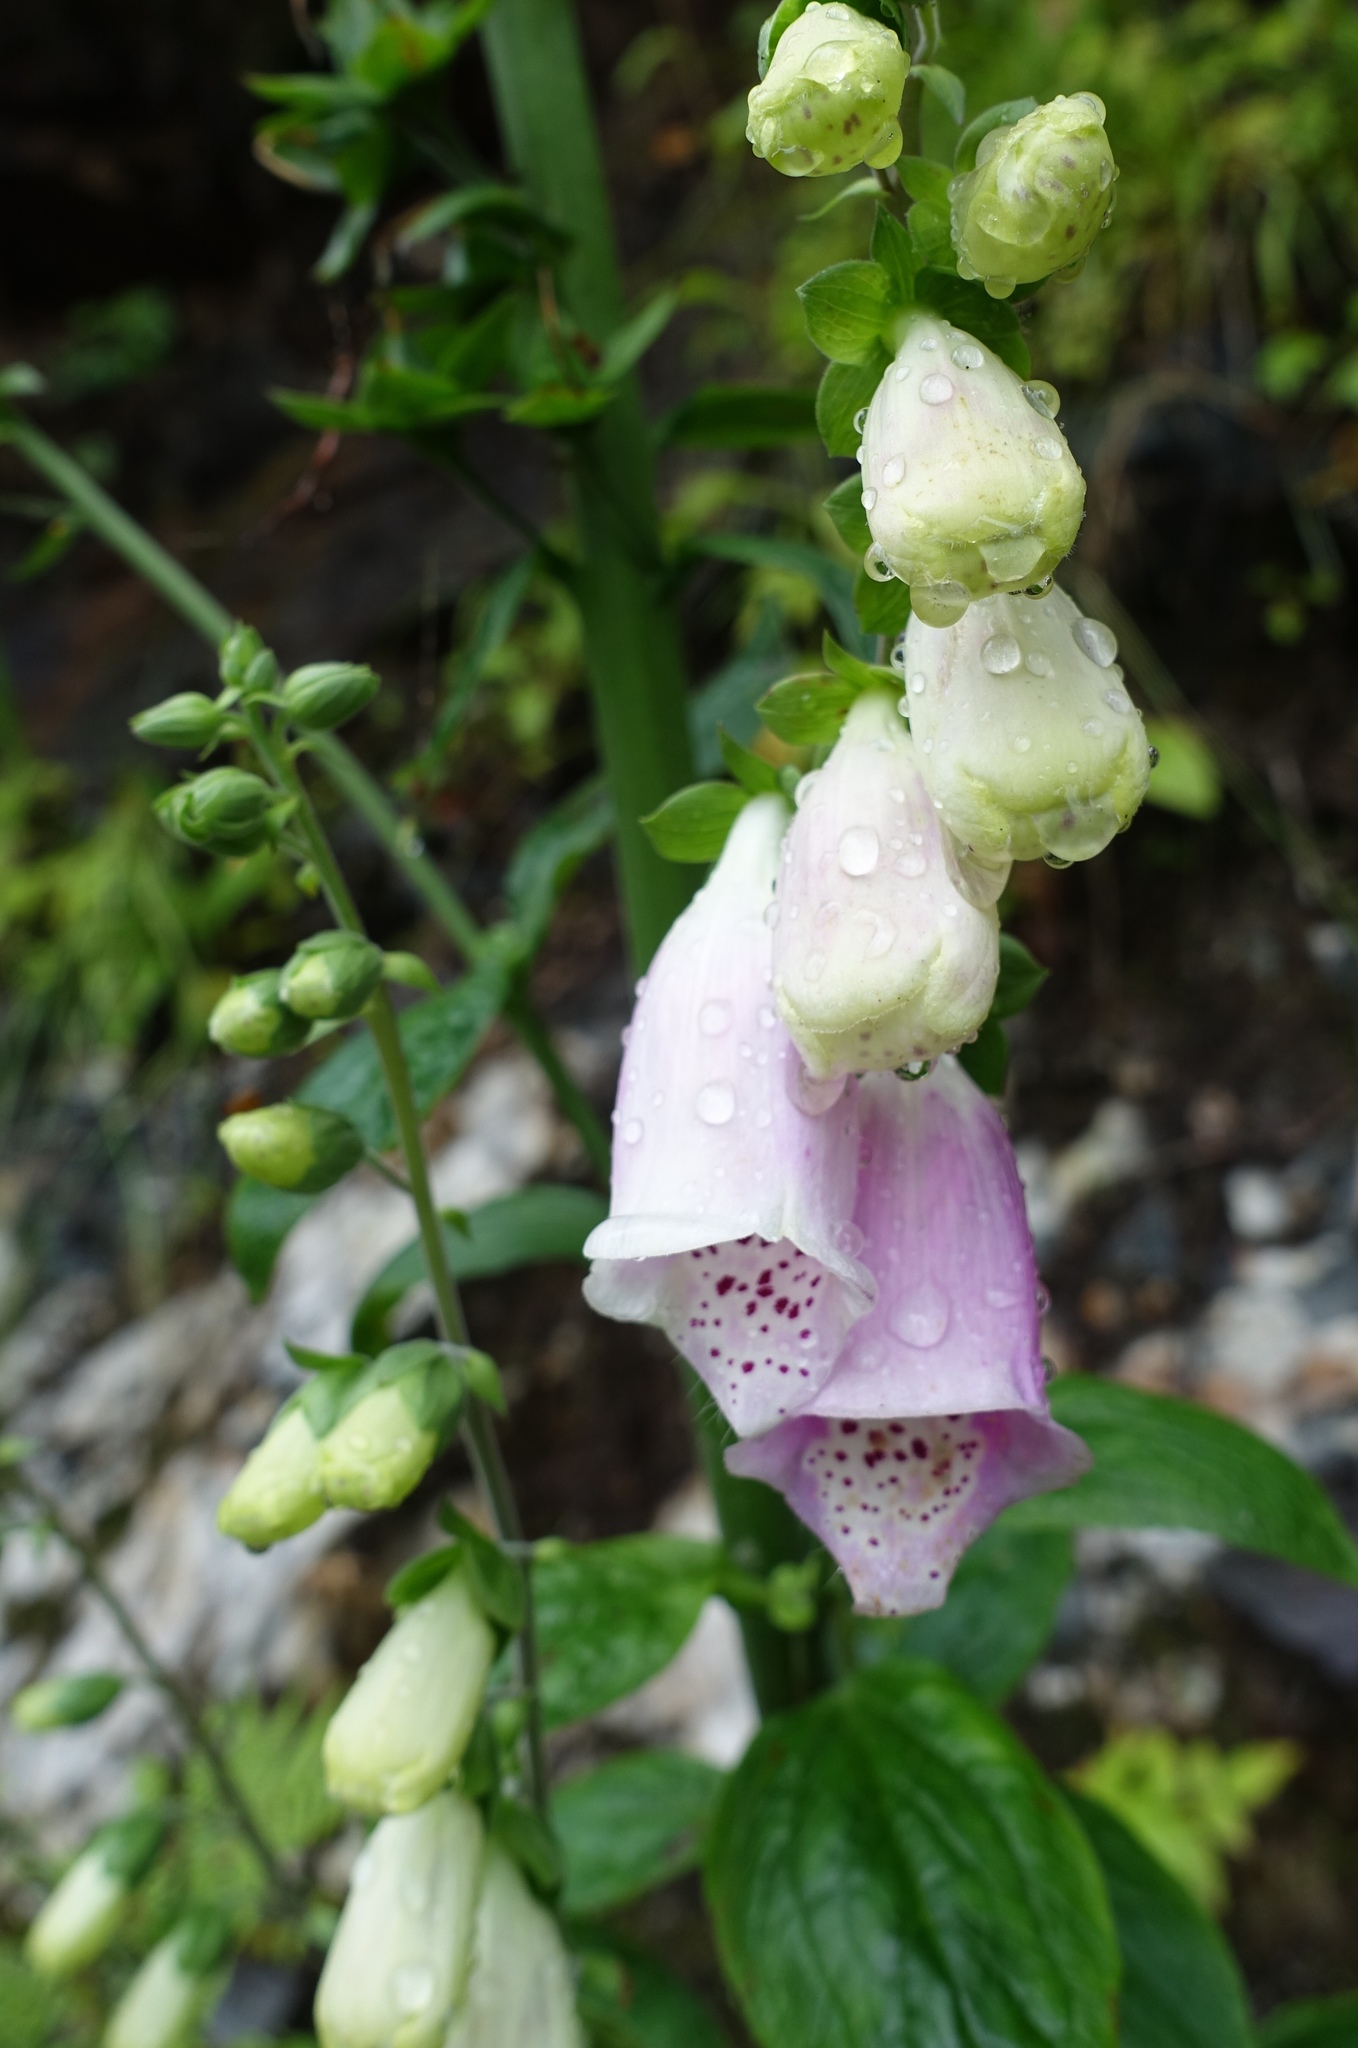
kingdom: Plantae
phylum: Tracheophyta
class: Magnoliopsida
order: Lamiales
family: Plantaginaceae
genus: Digitalis
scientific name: Digitalis purpurea
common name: Foxglove
